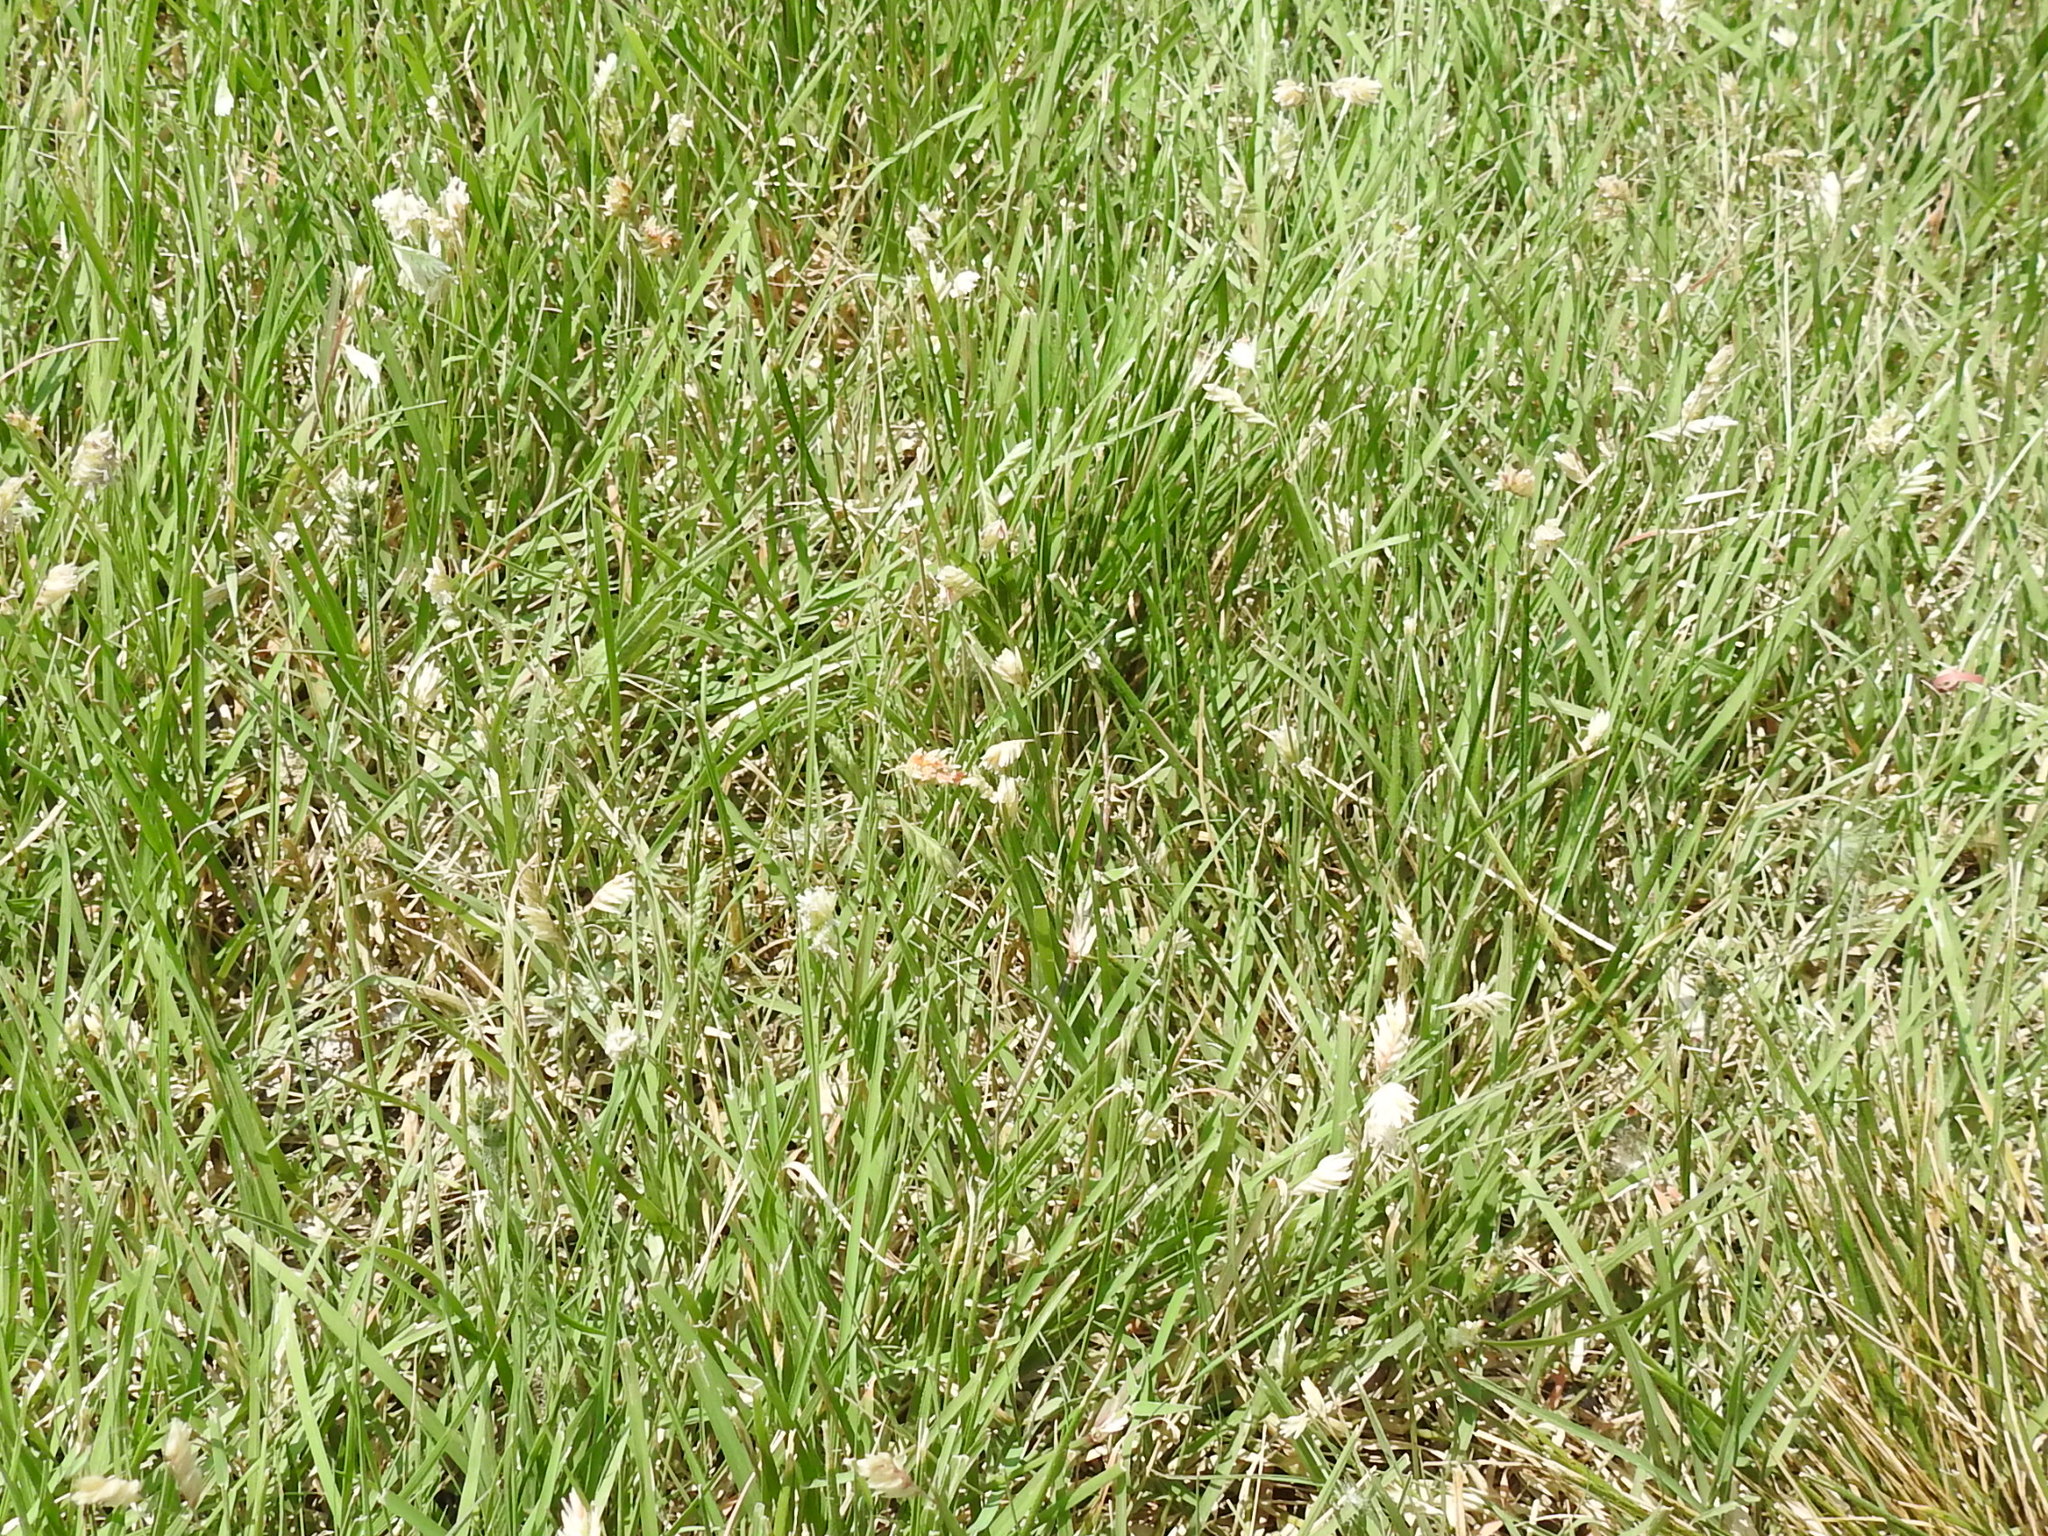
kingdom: Plantae
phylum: Tracheophyta
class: Liliopsida
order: Poales
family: Poaceae
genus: Bouteloua
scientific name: Bouteloua dactyloides
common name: Buffalo grass
